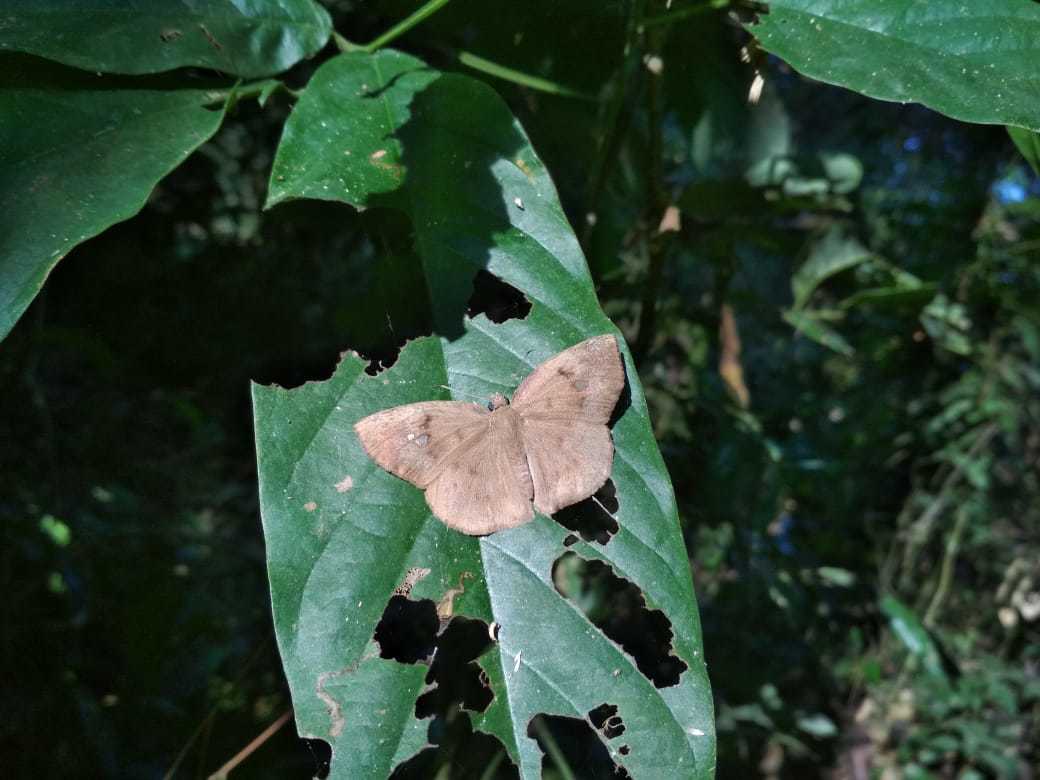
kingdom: Animalia
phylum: Arthropoda
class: Insecta
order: Lepidoptera
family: Hesperiidae
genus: Tagiades
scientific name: Tagiades japetus
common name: Pied flat
